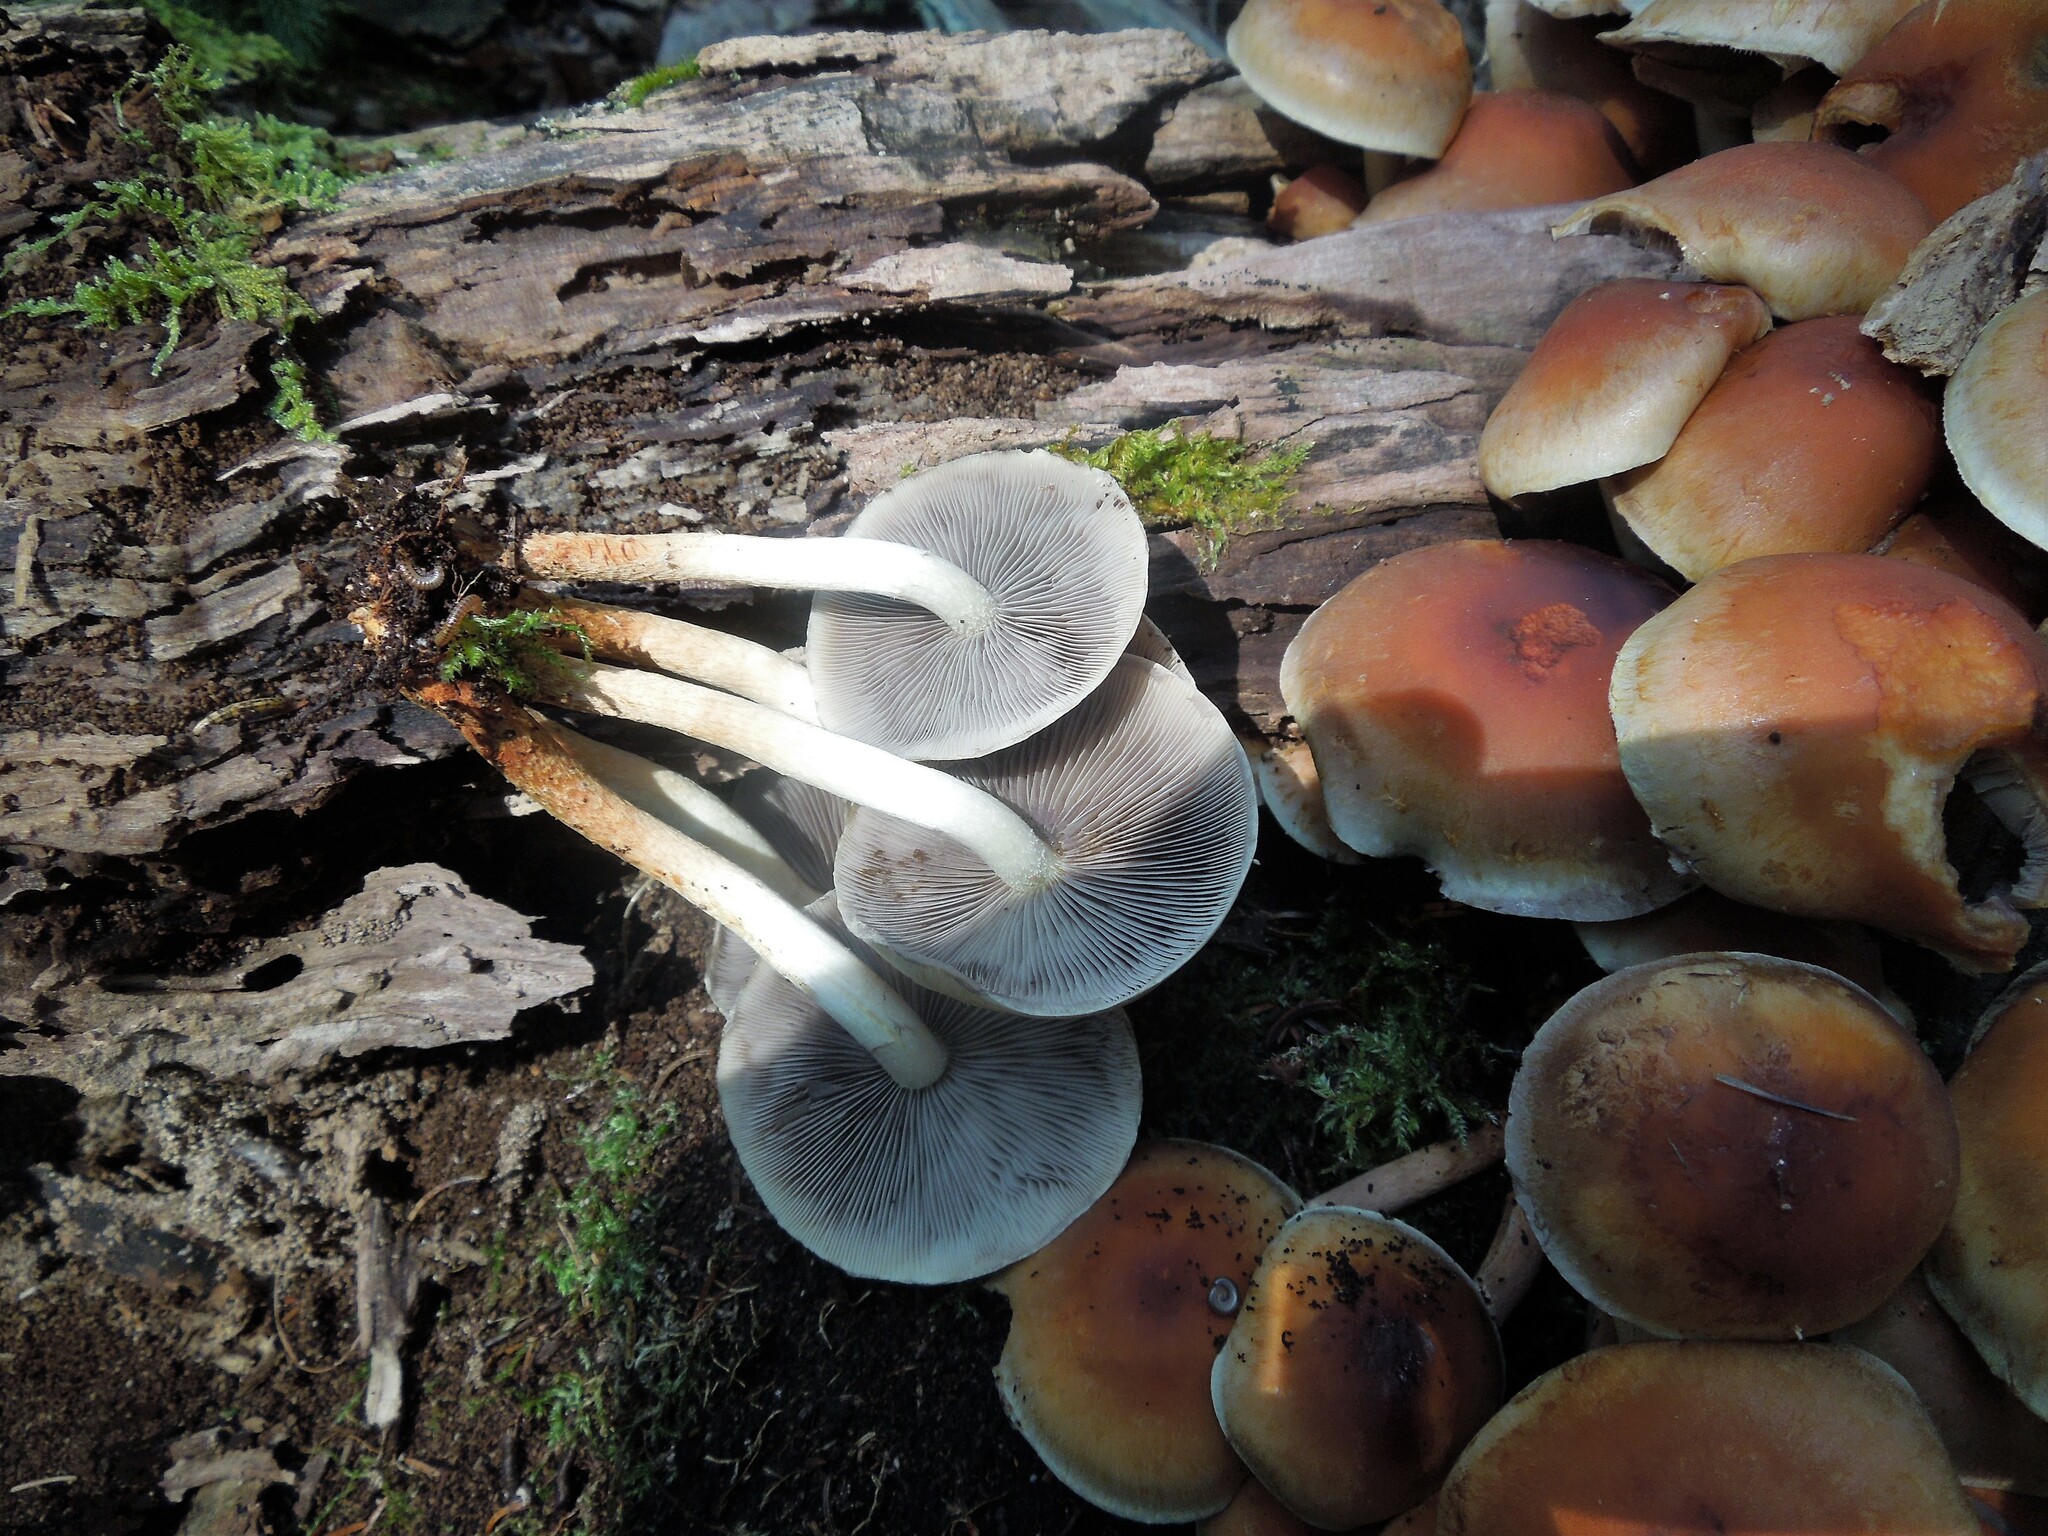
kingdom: Fungi
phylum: Basidiomycota
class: Agaricomycetes
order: Agaricales
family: Strophariaceae
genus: Hypholoma
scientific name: Hypholoma lateritium
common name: Brick caps
